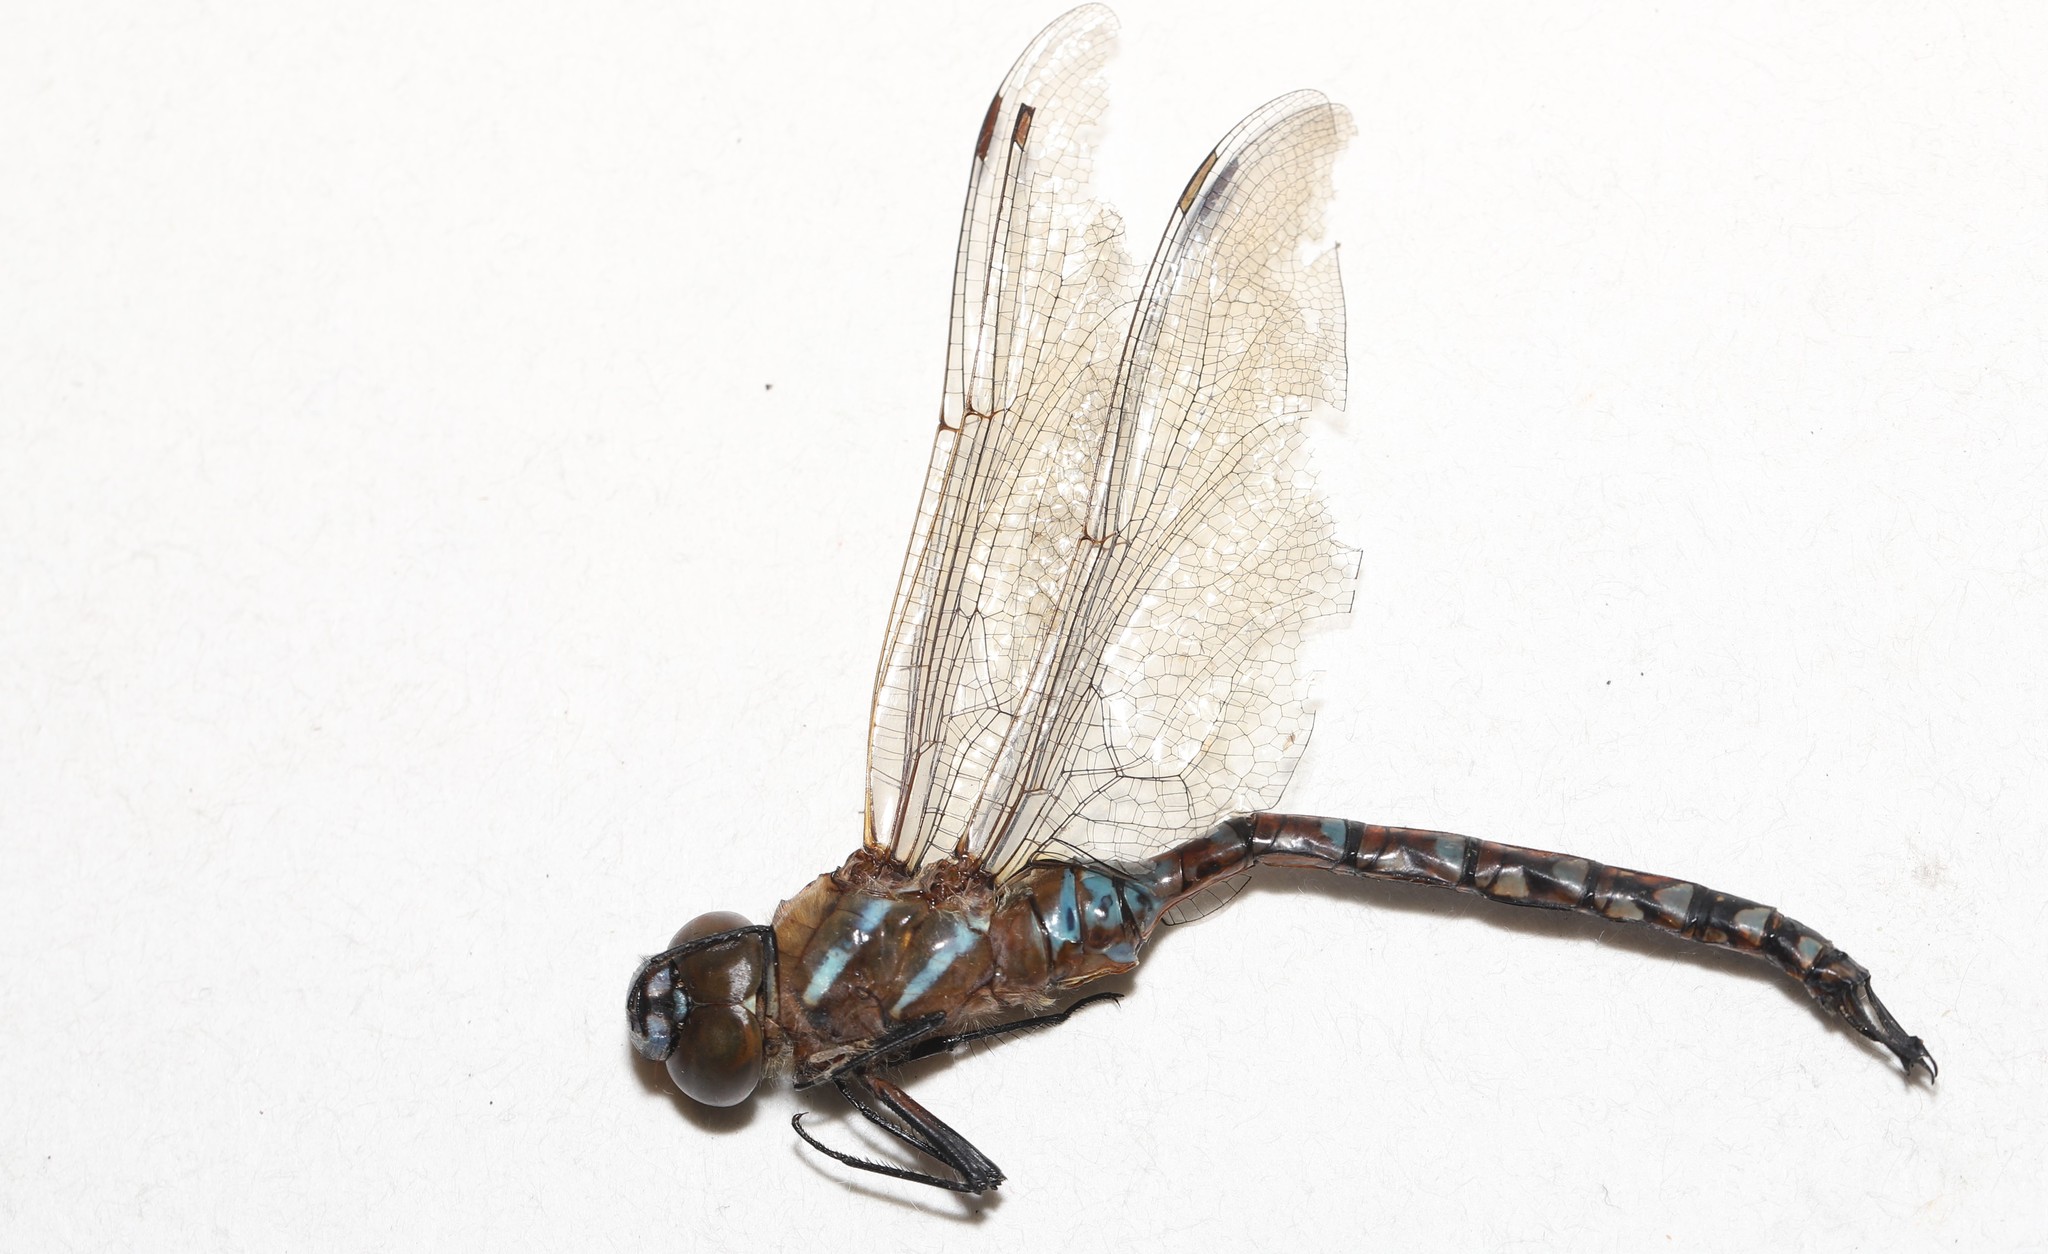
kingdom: Animalia
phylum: Arthropoda
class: Insecta
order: Odonata
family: Aeshnidae
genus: Rhionaeschna
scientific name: Rhionaeschna multicolor
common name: Blue-eyed darner
